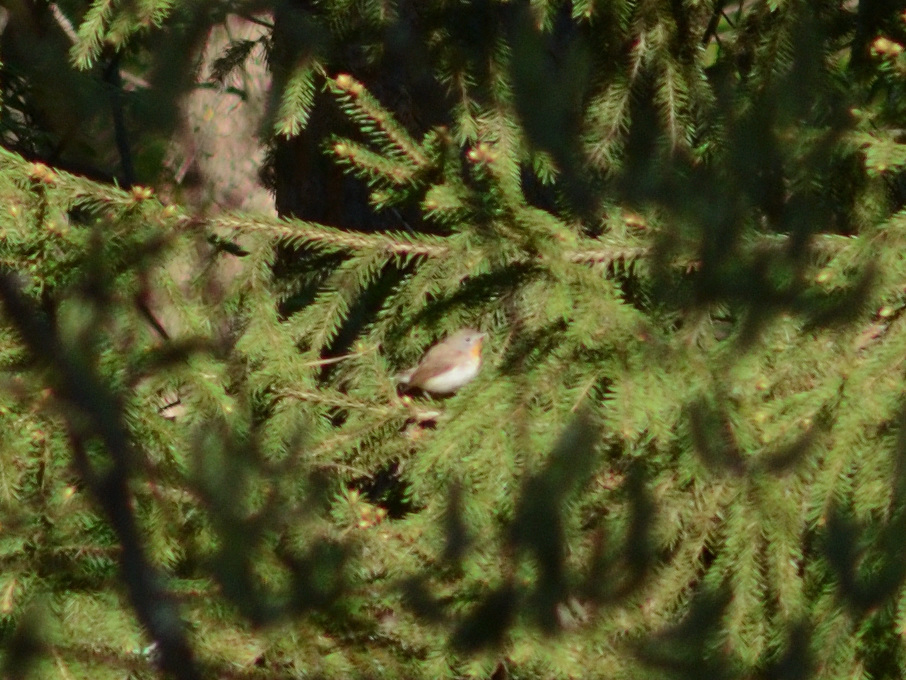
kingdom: Animalia
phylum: Chordata
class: Aves
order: Passeriformes
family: Muscicapidae
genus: Ficedula
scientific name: Ficedula parva
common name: Red-breasted flycatcher
